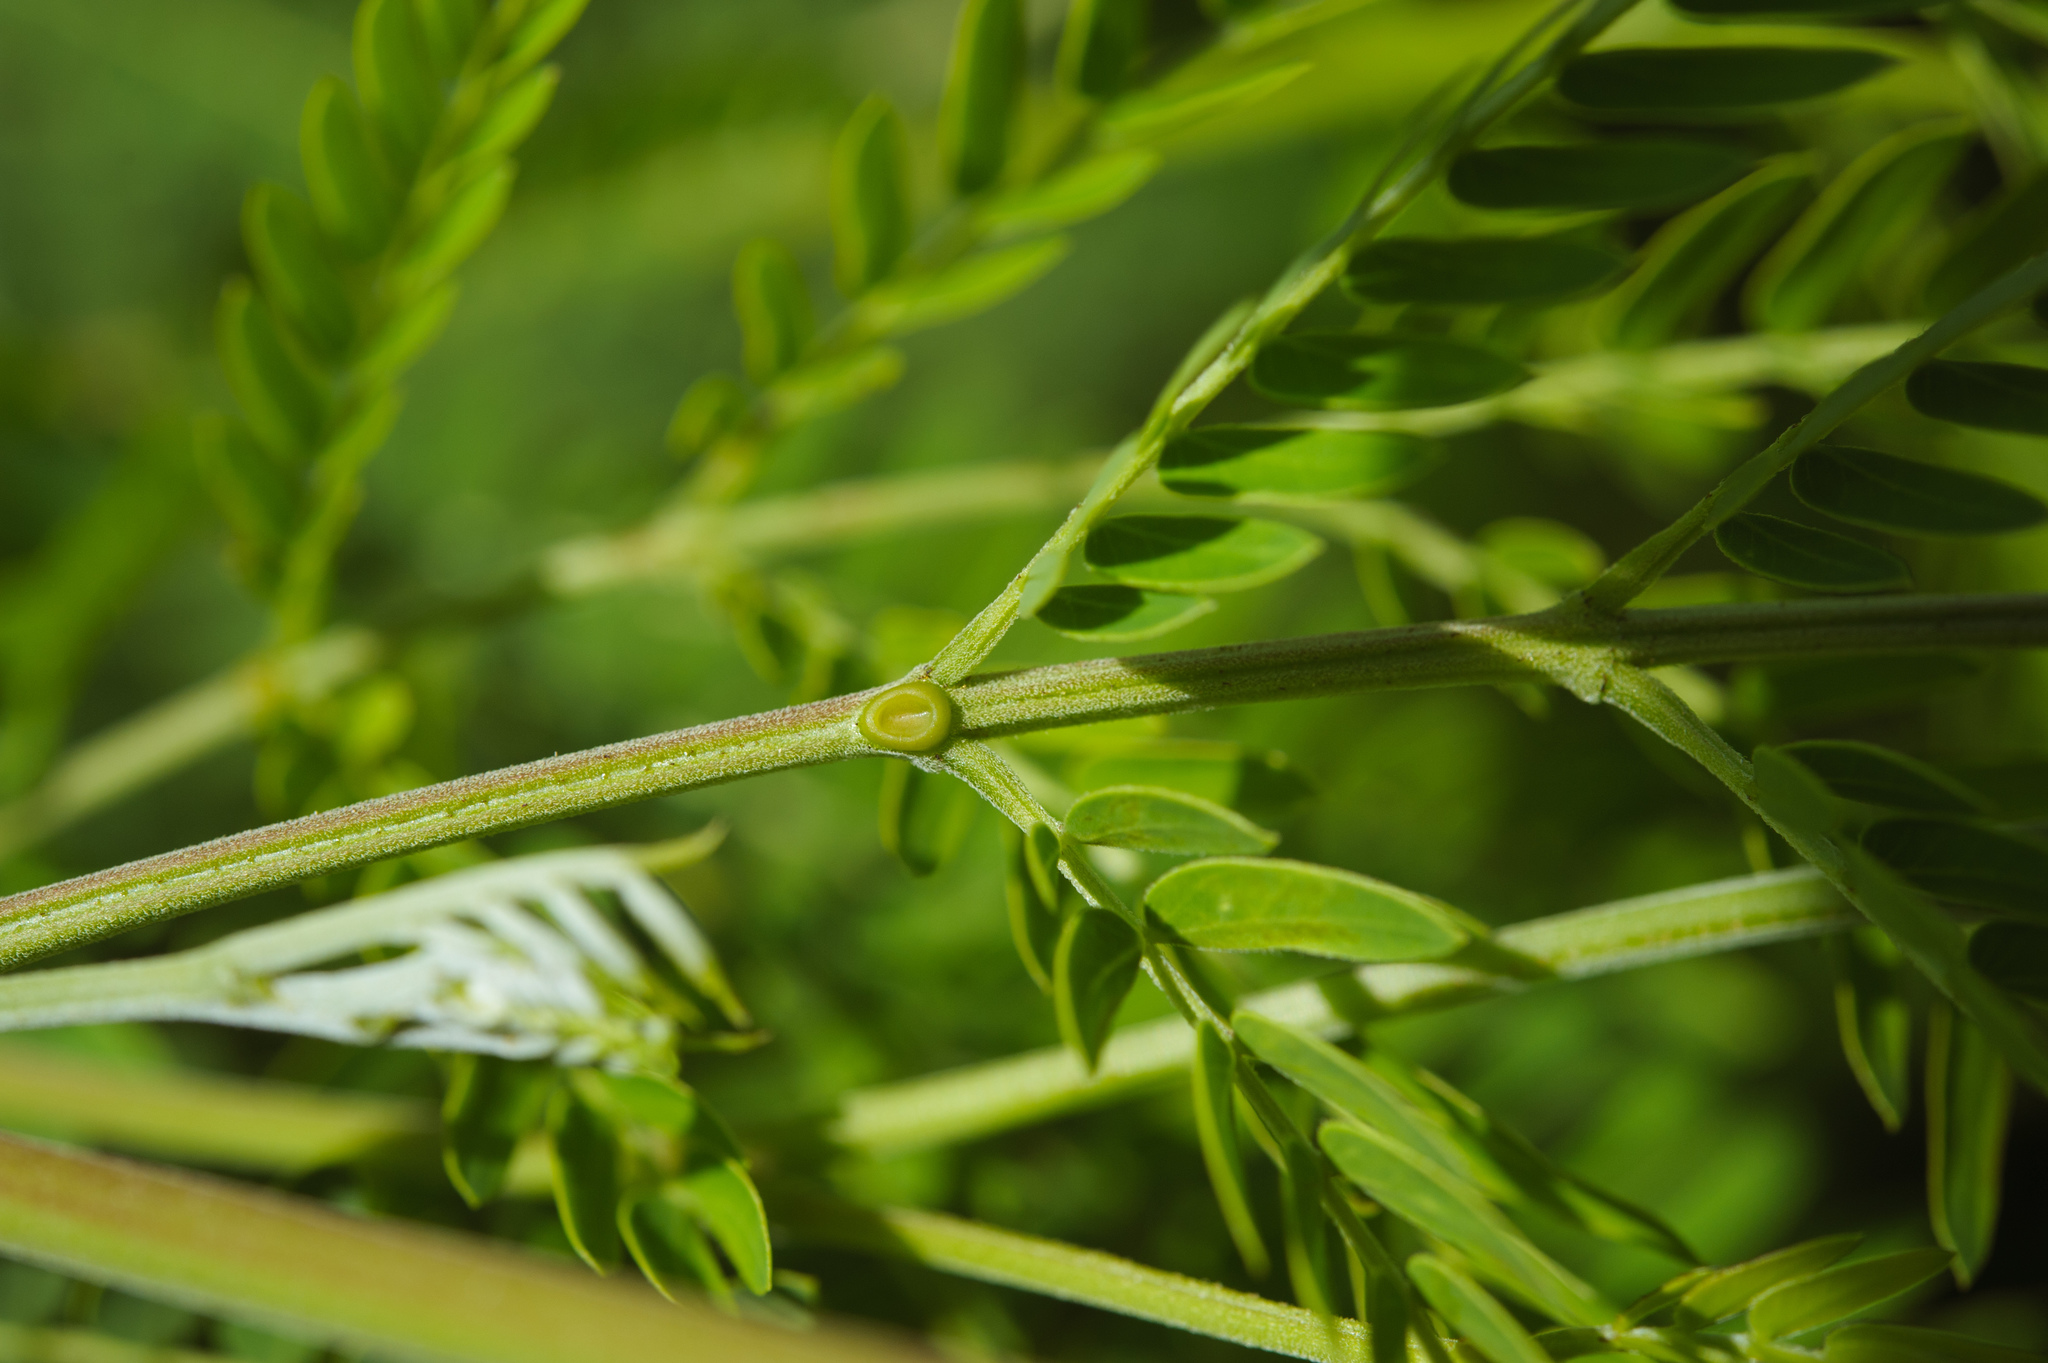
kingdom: Plantae
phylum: Tracheophyta
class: Magnoliopsida
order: Fabales
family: Fabaceae
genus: Leucaena
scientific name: Leucaena leucocephala
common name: White leadtree
